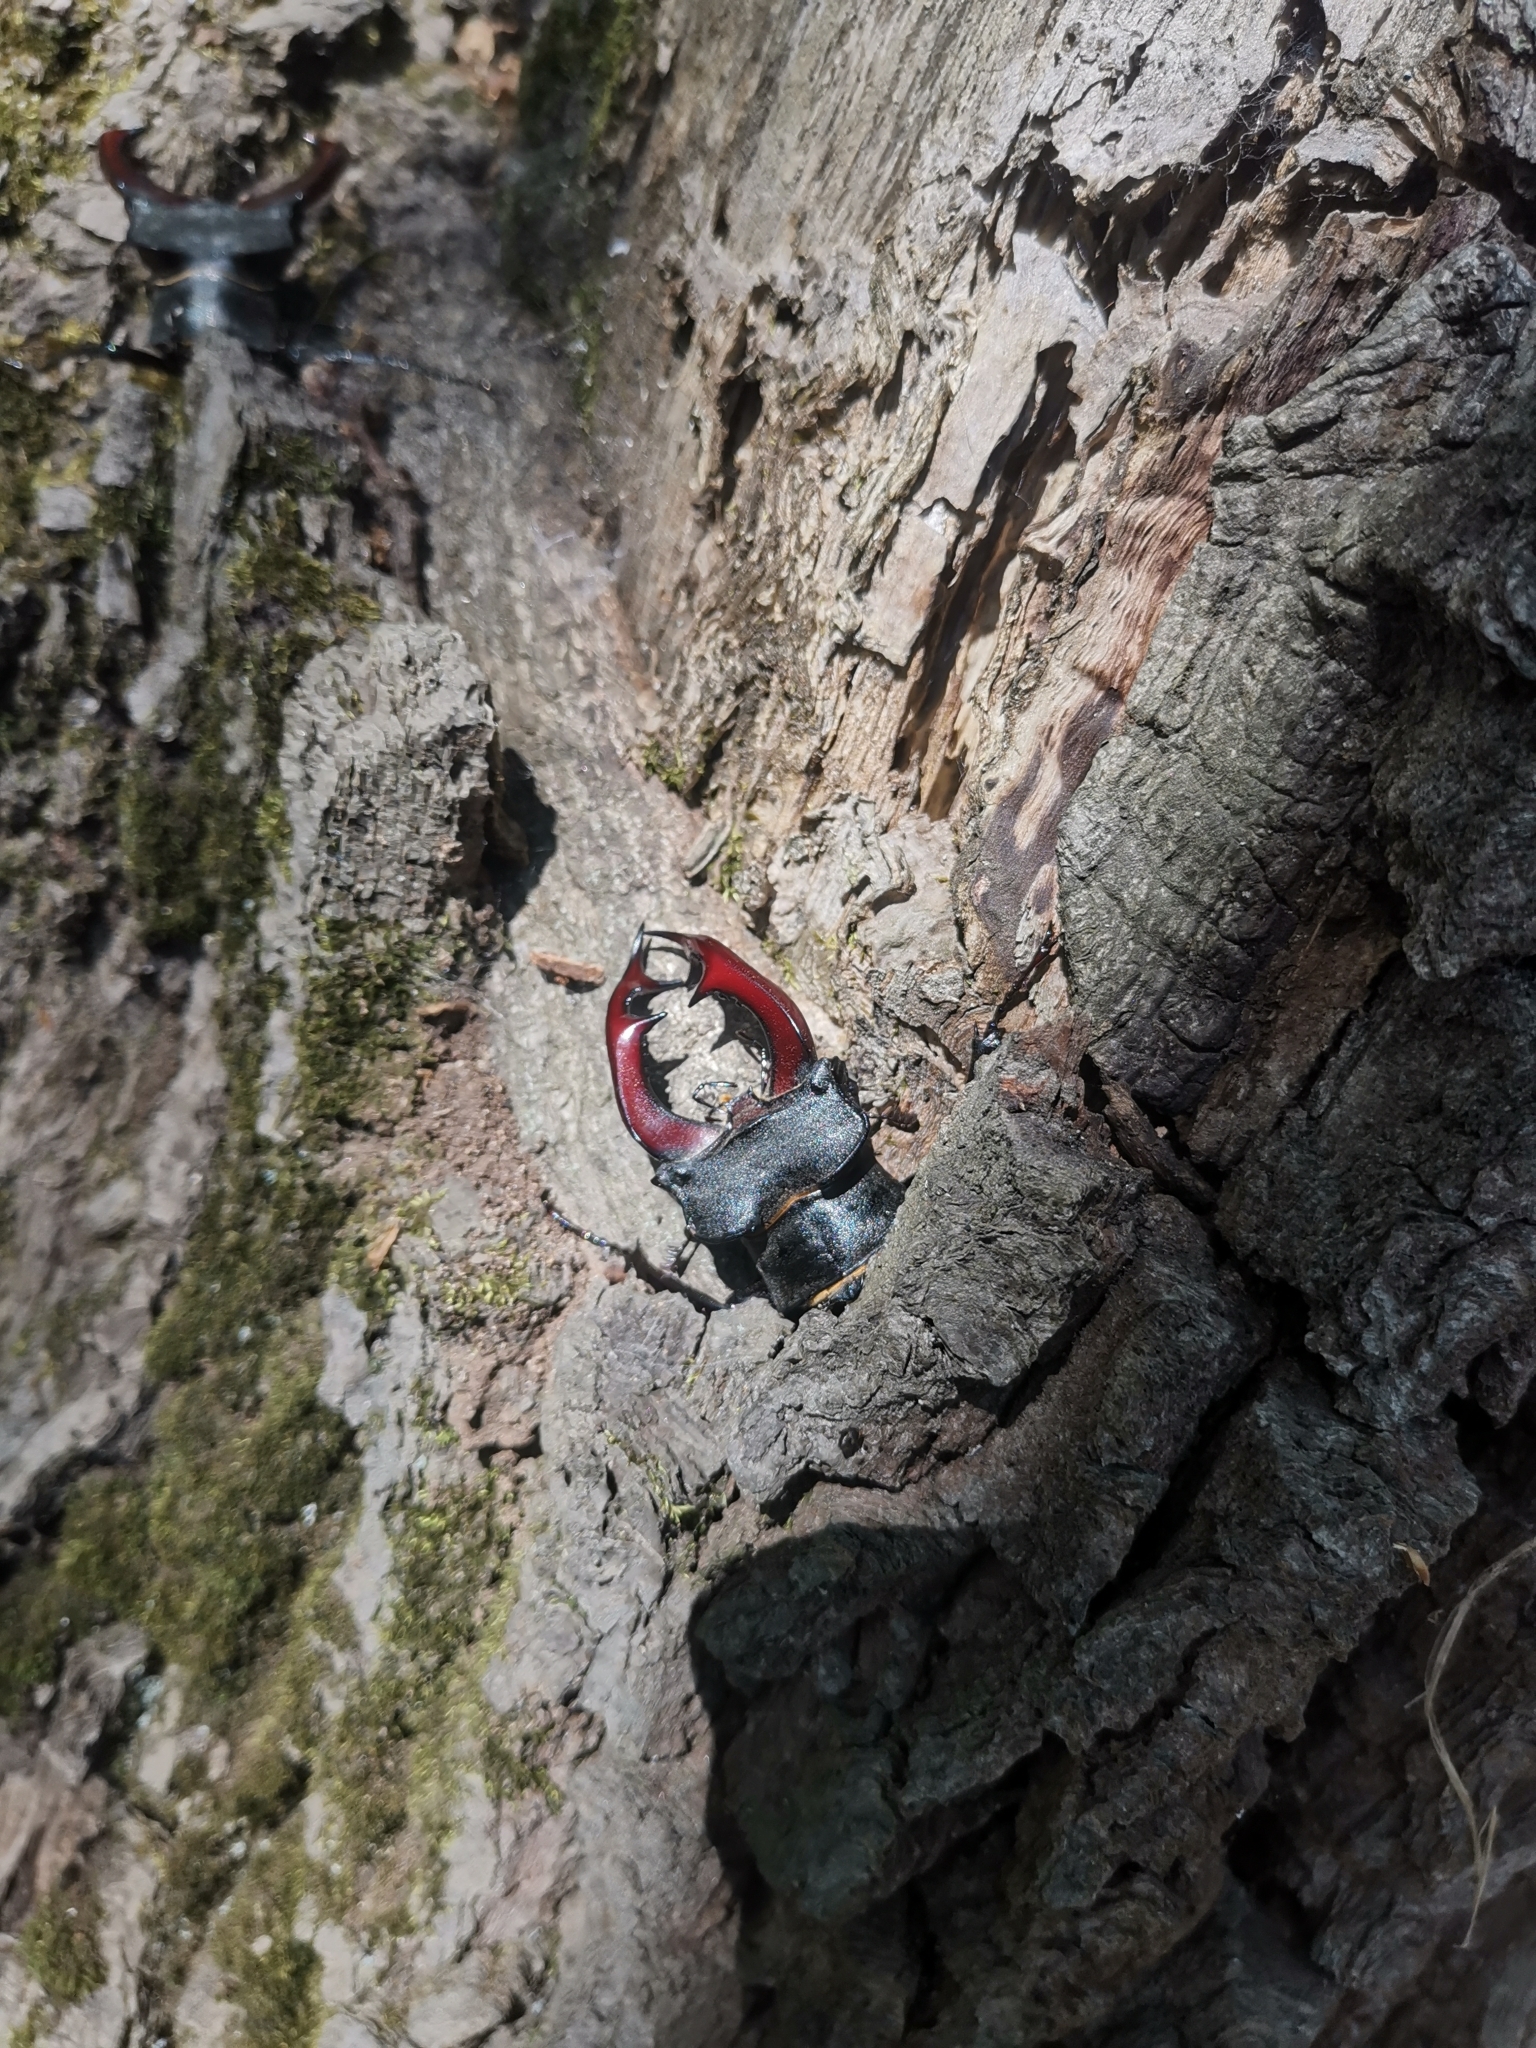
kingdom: Animalia
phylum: Arthropoda
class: Insecta
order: Coleoptera
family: Lucanidae
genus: Lucanus
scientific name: Lucanus cervus
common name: Stag beetle
